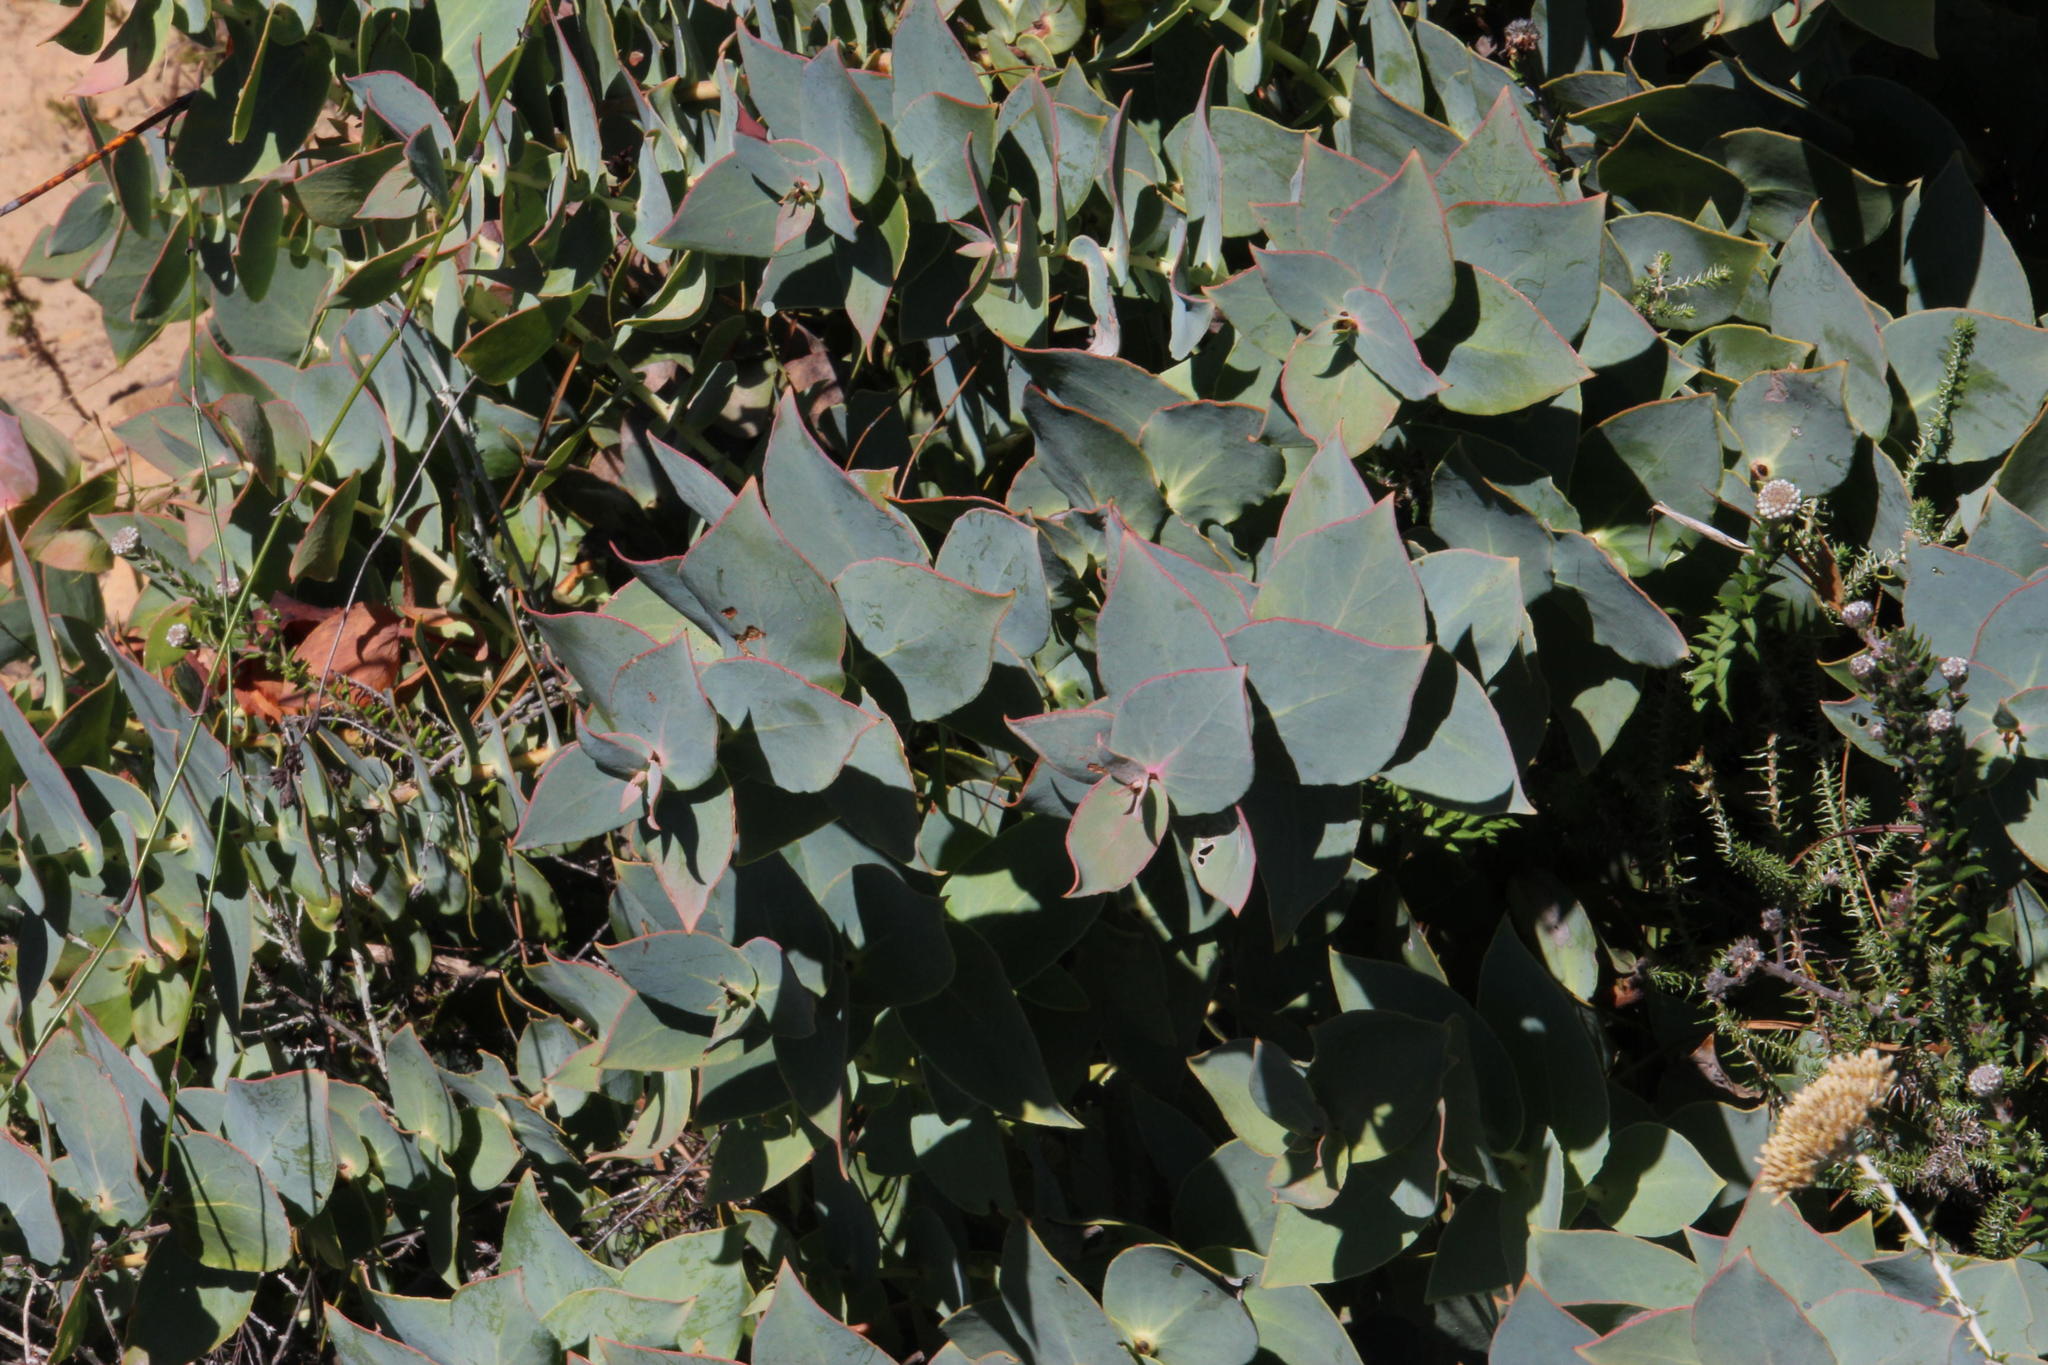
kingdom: Plantae
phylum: Tracheophyta
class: Magnoliopsida
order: Proteales
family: Proteaceae
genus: Protea
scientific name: Protea amplexicaulis
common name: Clasping-leaf sugarbush
